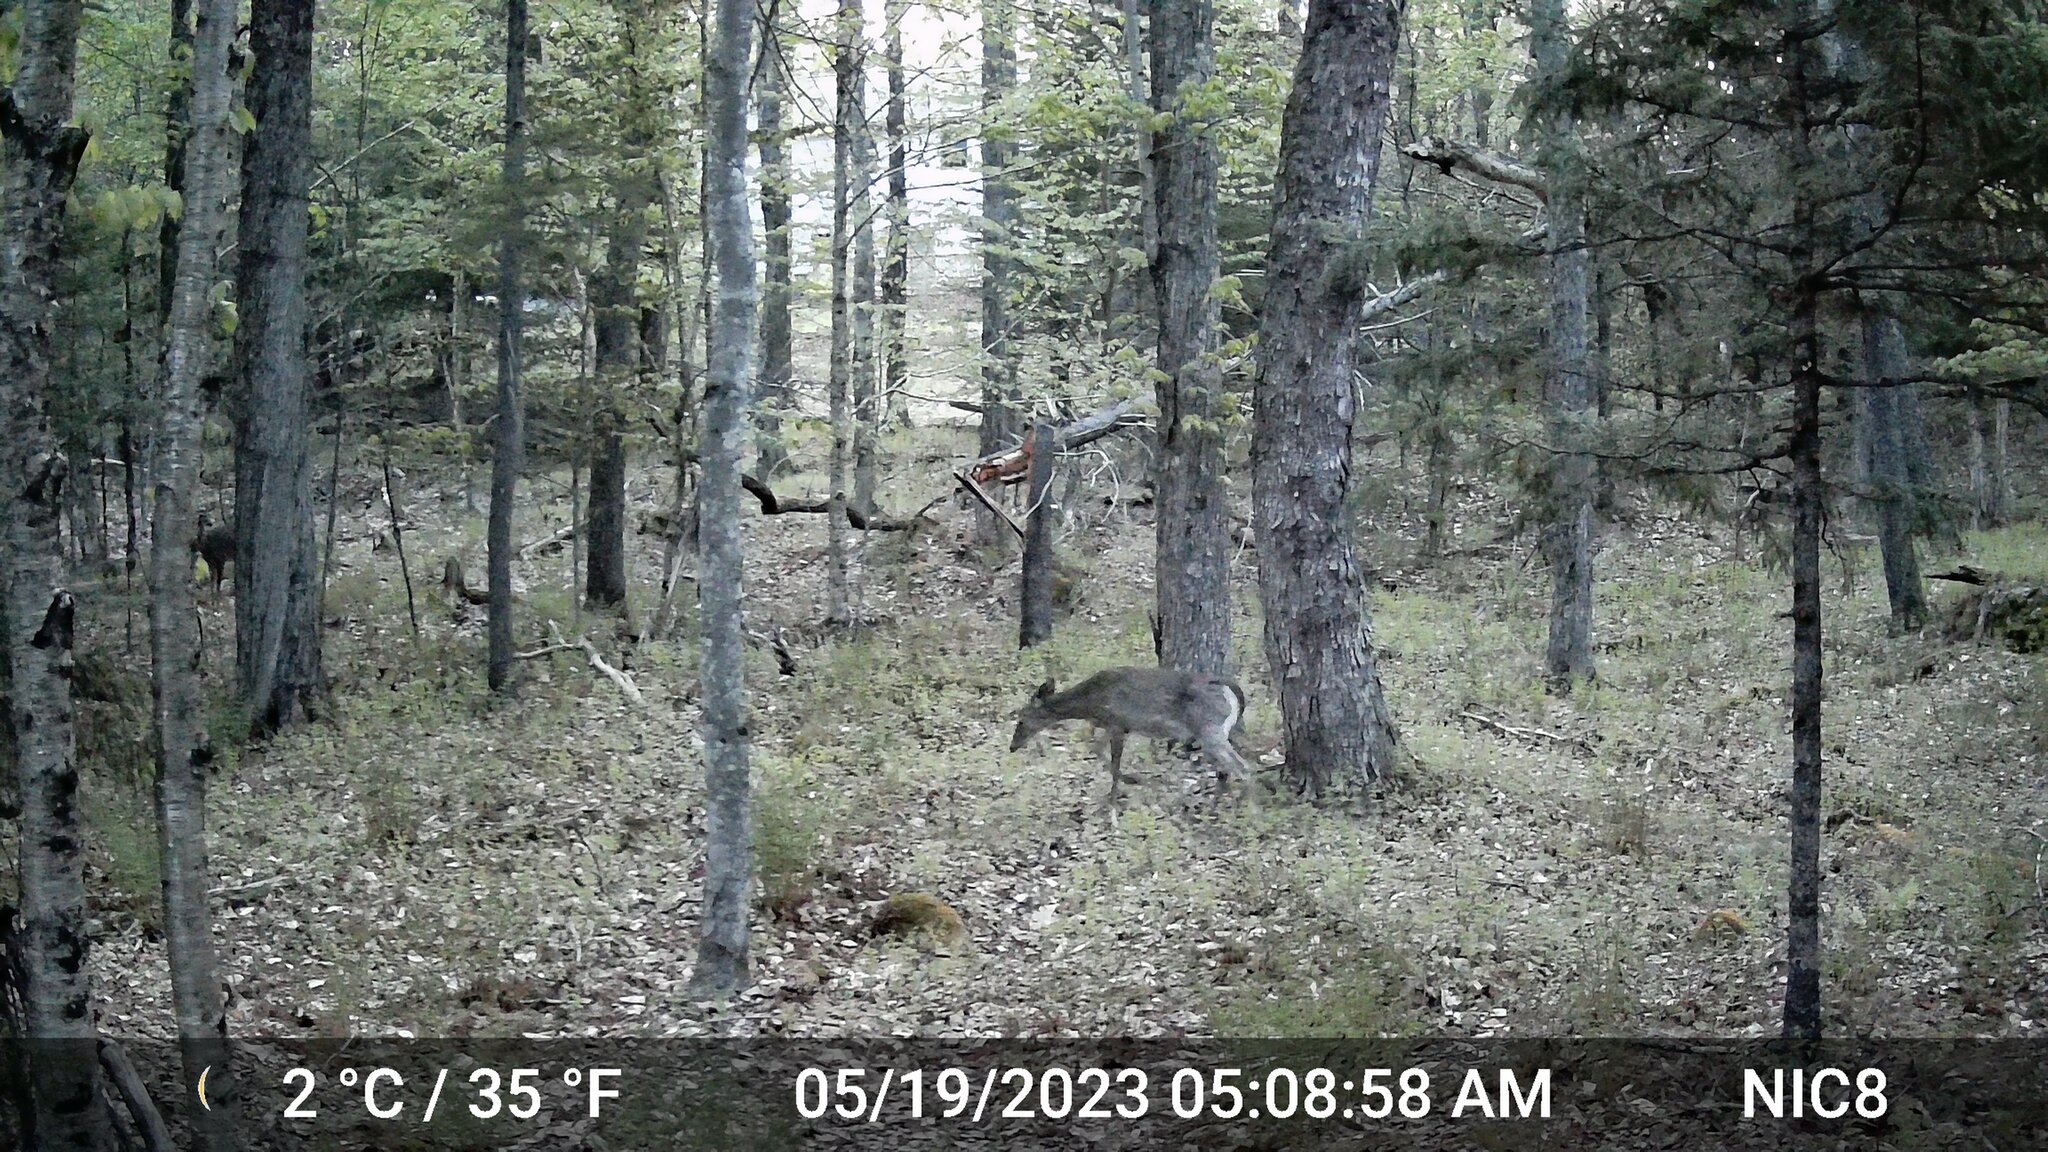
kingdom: Animalia
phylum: Chordata
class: Mammalia
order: Artiodactyla
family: Cervidae
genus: Odocoileus
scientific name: Odocoileus virginianus
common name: White-tailed deer
